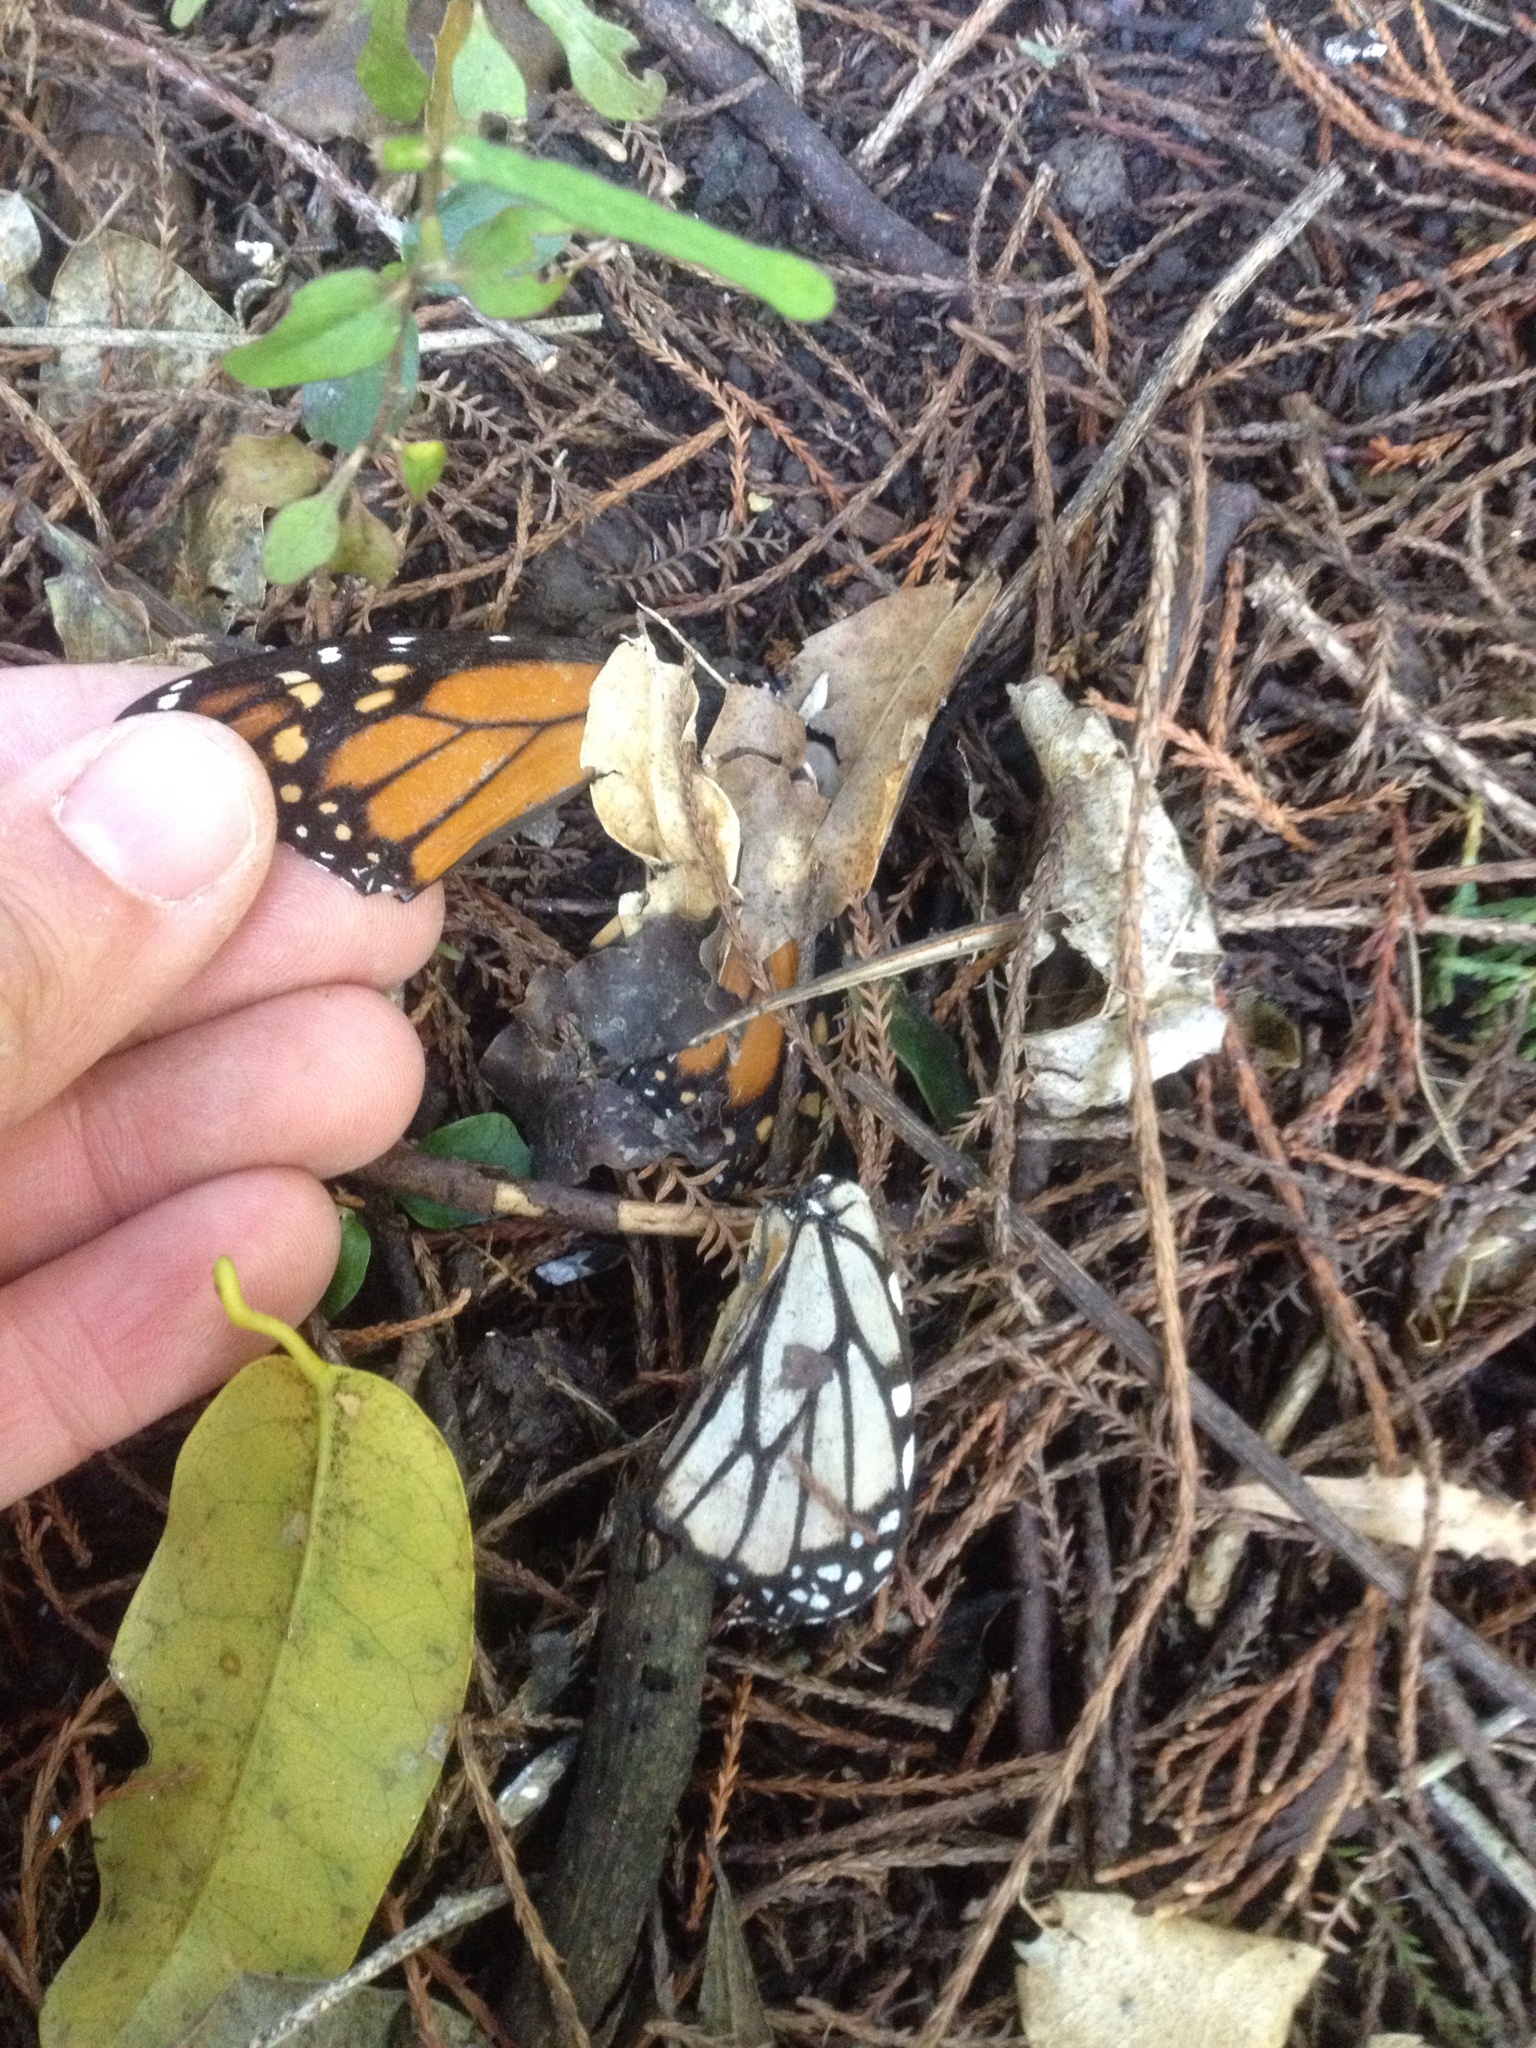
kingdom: Animalia
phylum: Arthropoda
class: Insecta
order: Lepidoptera
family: Nymphalidae
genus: Danaus
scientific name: Danaus plexippus
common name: Monarch
